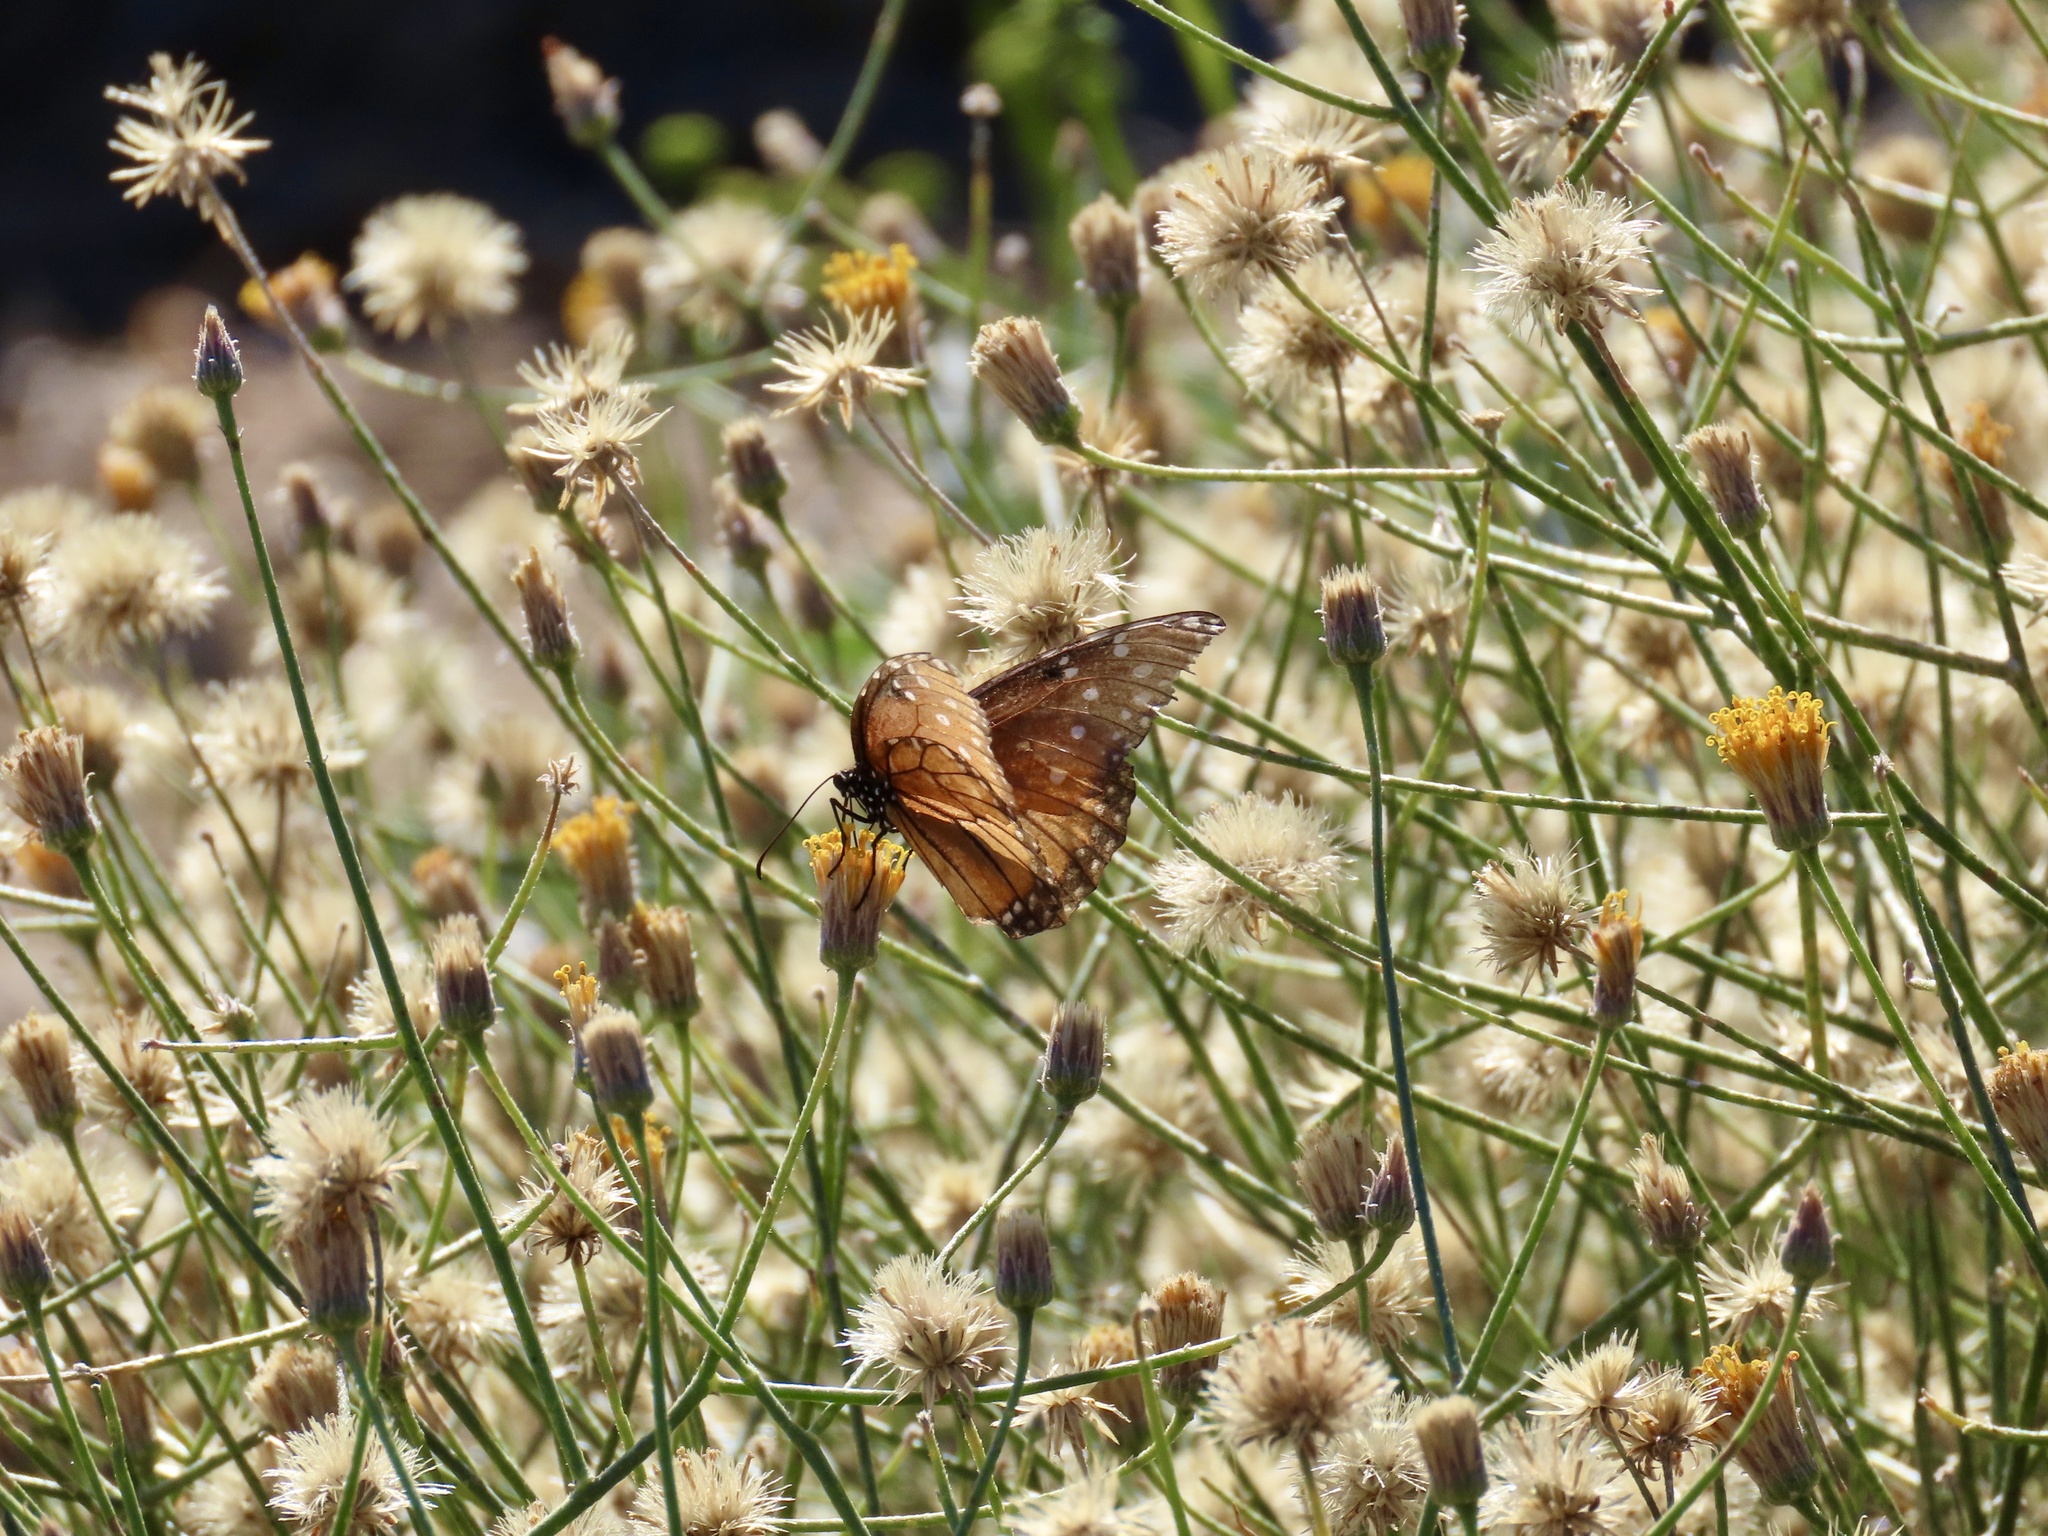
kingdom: Animalia
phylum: Arthropoda
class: Insecta
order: Lepidoptera
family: Nymphalidae
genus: Danaus
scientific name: Danaus gilippus
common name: Queen
